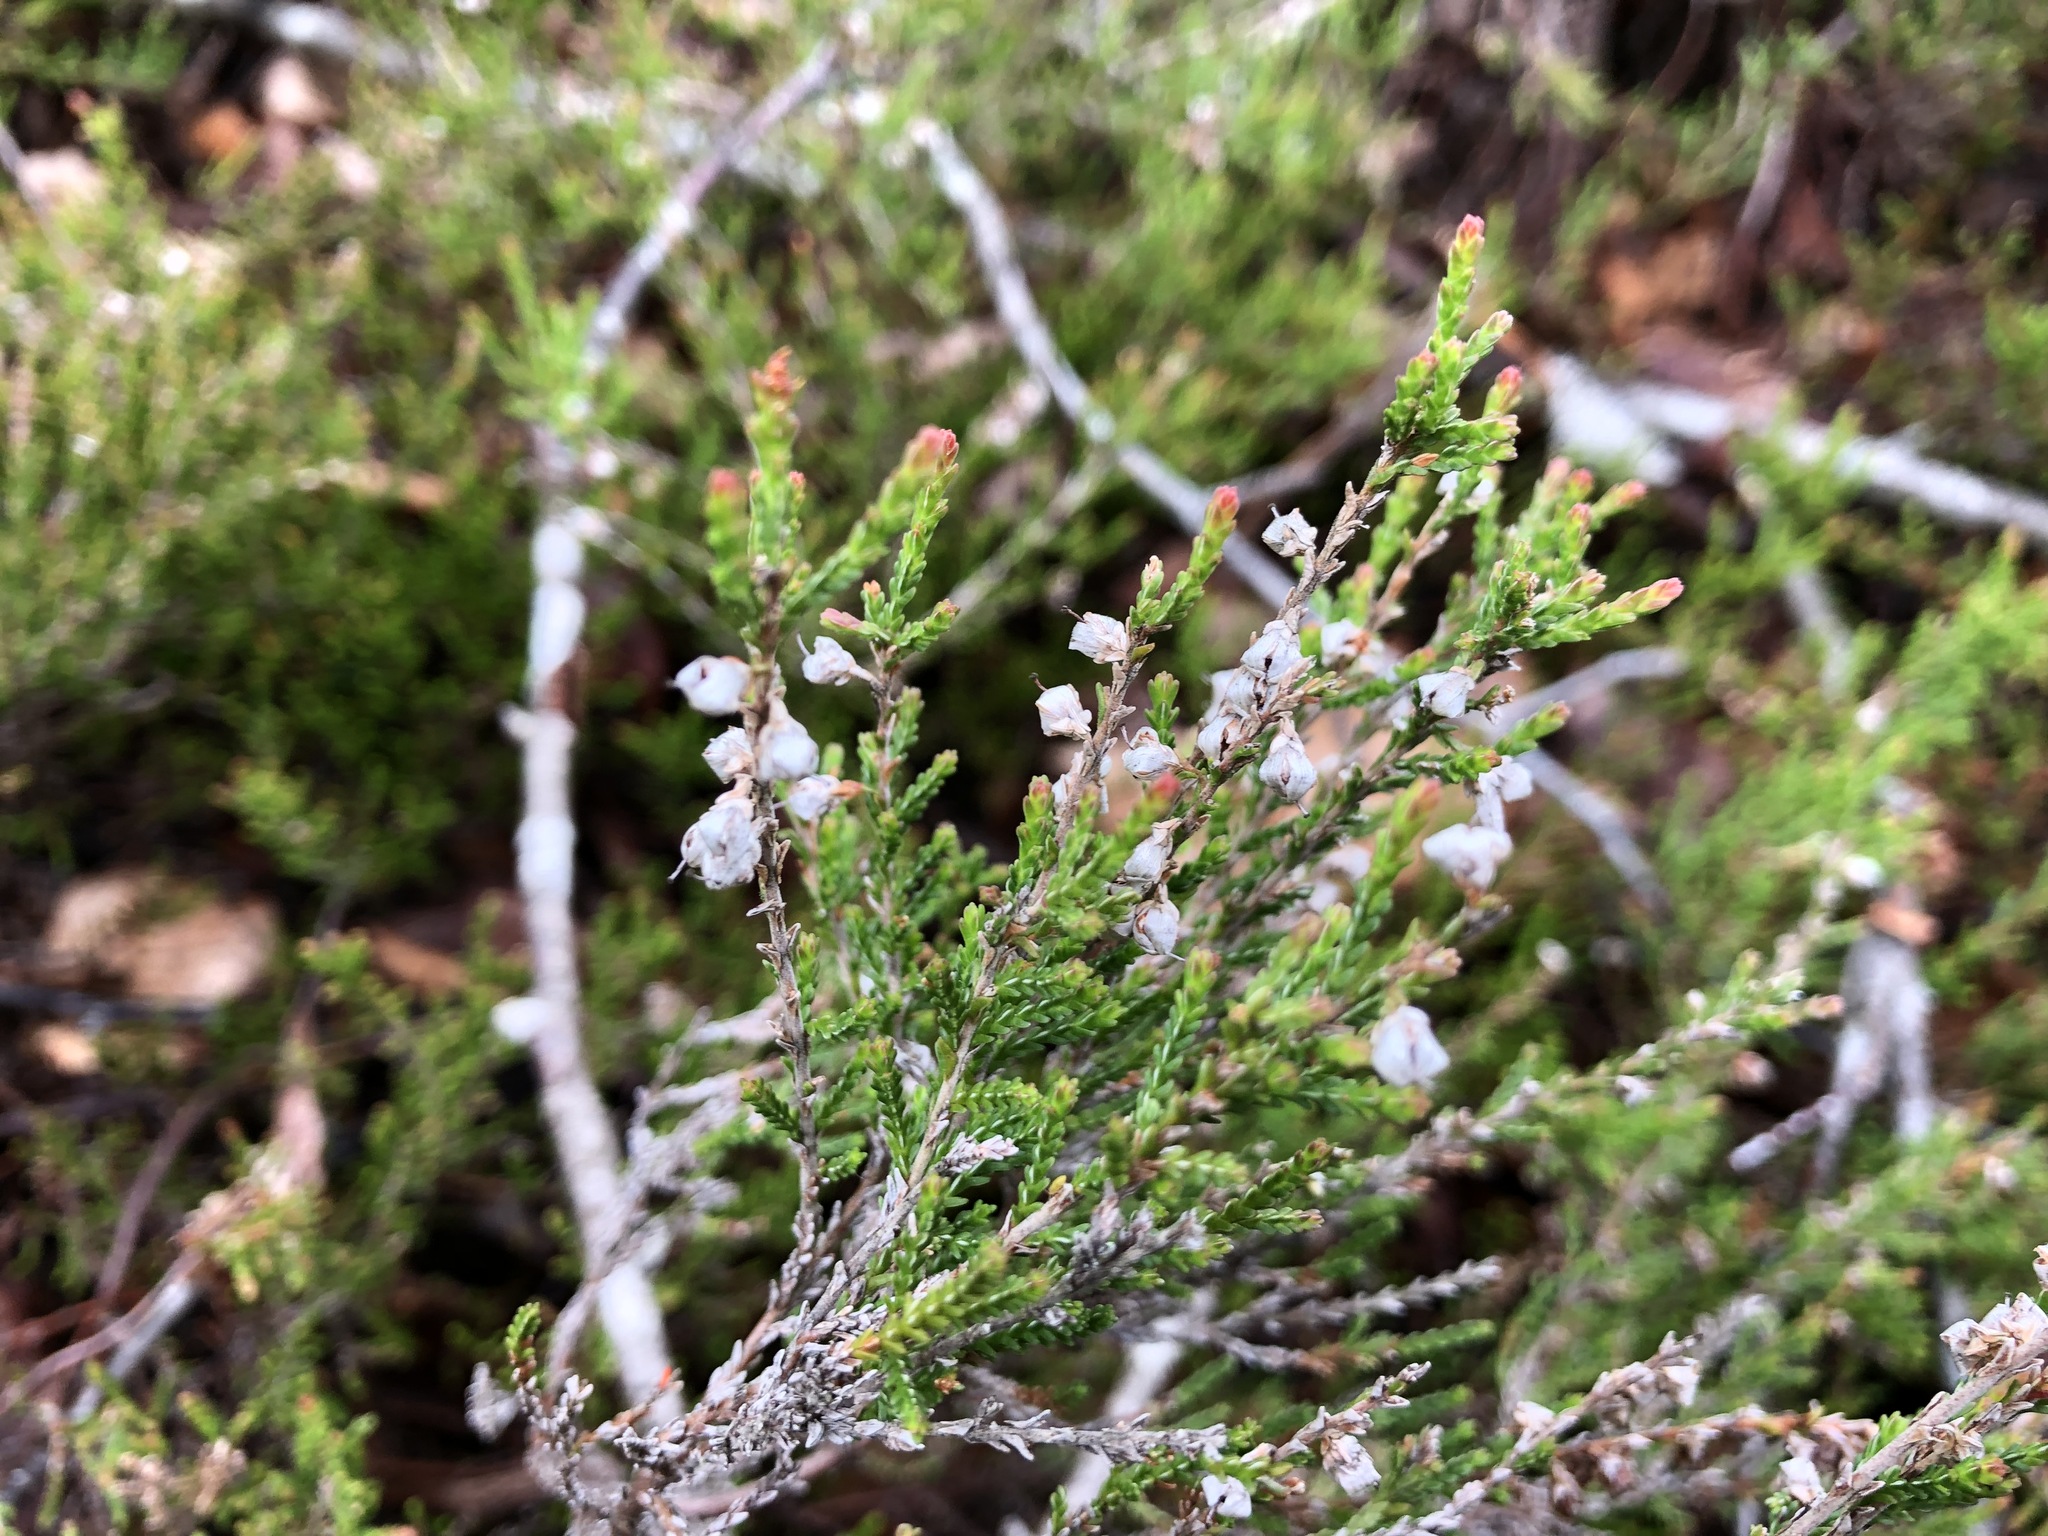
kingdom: Plantae
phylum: Tracheophyta
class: Magnoliopsida
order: Ericales
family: Ericaceae
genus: Calluna
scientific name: Calluna vulgaris
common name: Heather
